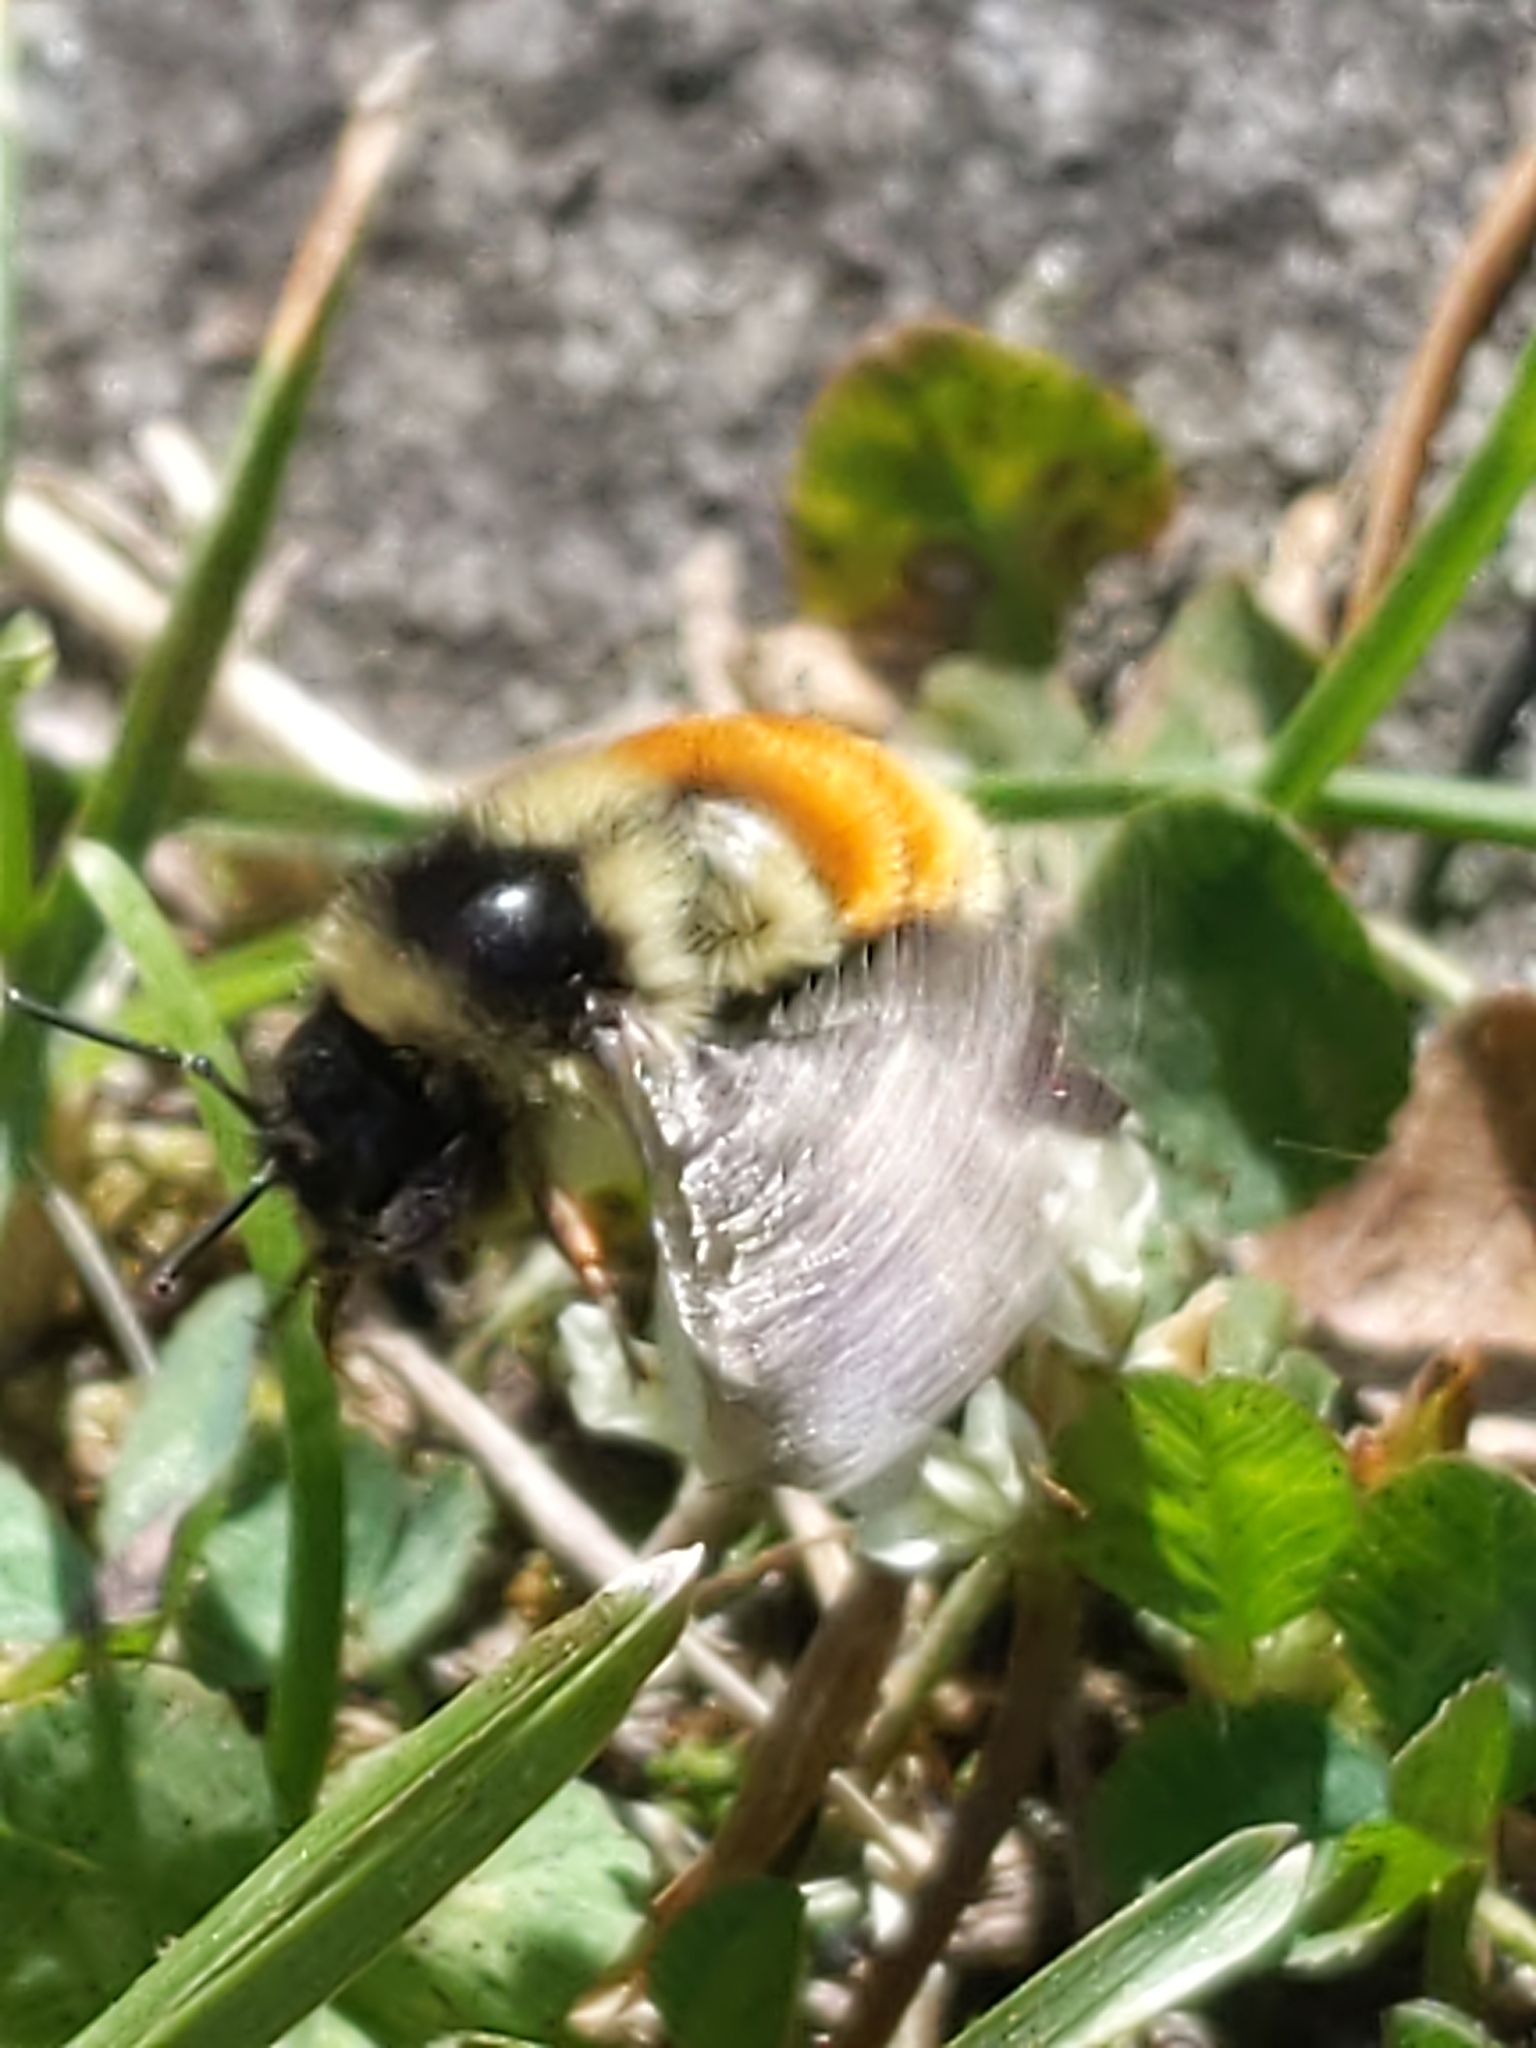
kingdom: Animalia
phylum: Arthropoda
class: Insecta
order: Hymenoptera
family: Apidae
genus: Bombus
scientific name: Bombus ternarius
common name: Tri-colored bumble bee
